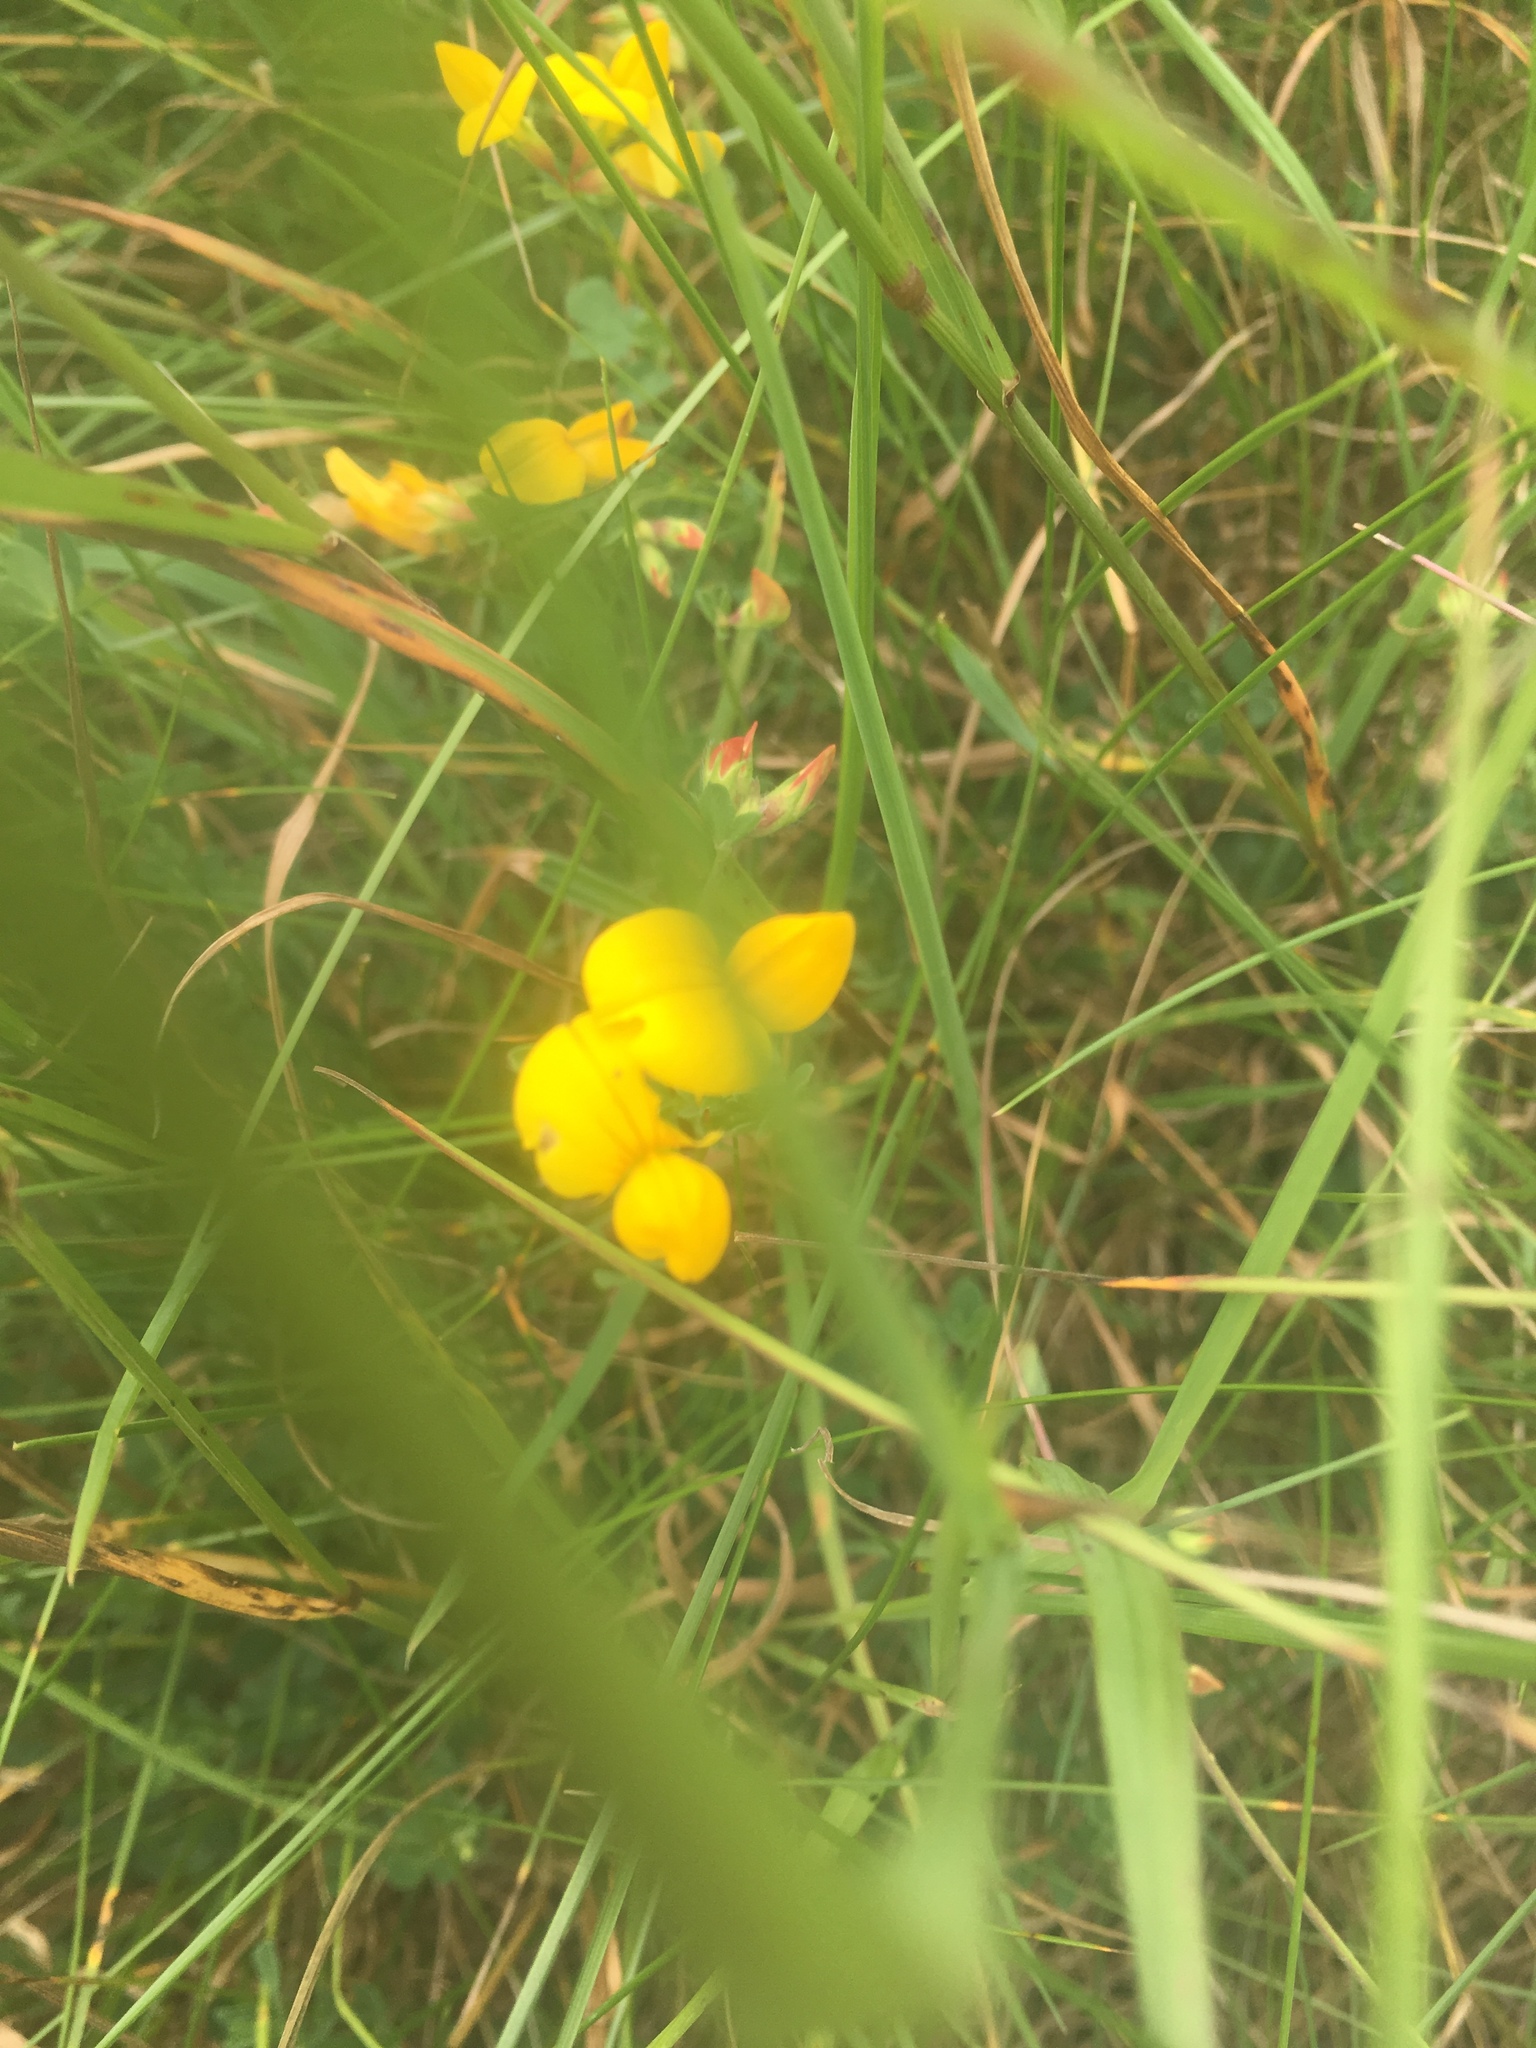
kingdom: Plantae
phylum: Tracheophyta
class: Magnoliopsida
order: Fabales
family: Fabaceae
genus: Lotus
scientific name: Lotus corniculatus
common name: Common bird's-foot-trefoil
